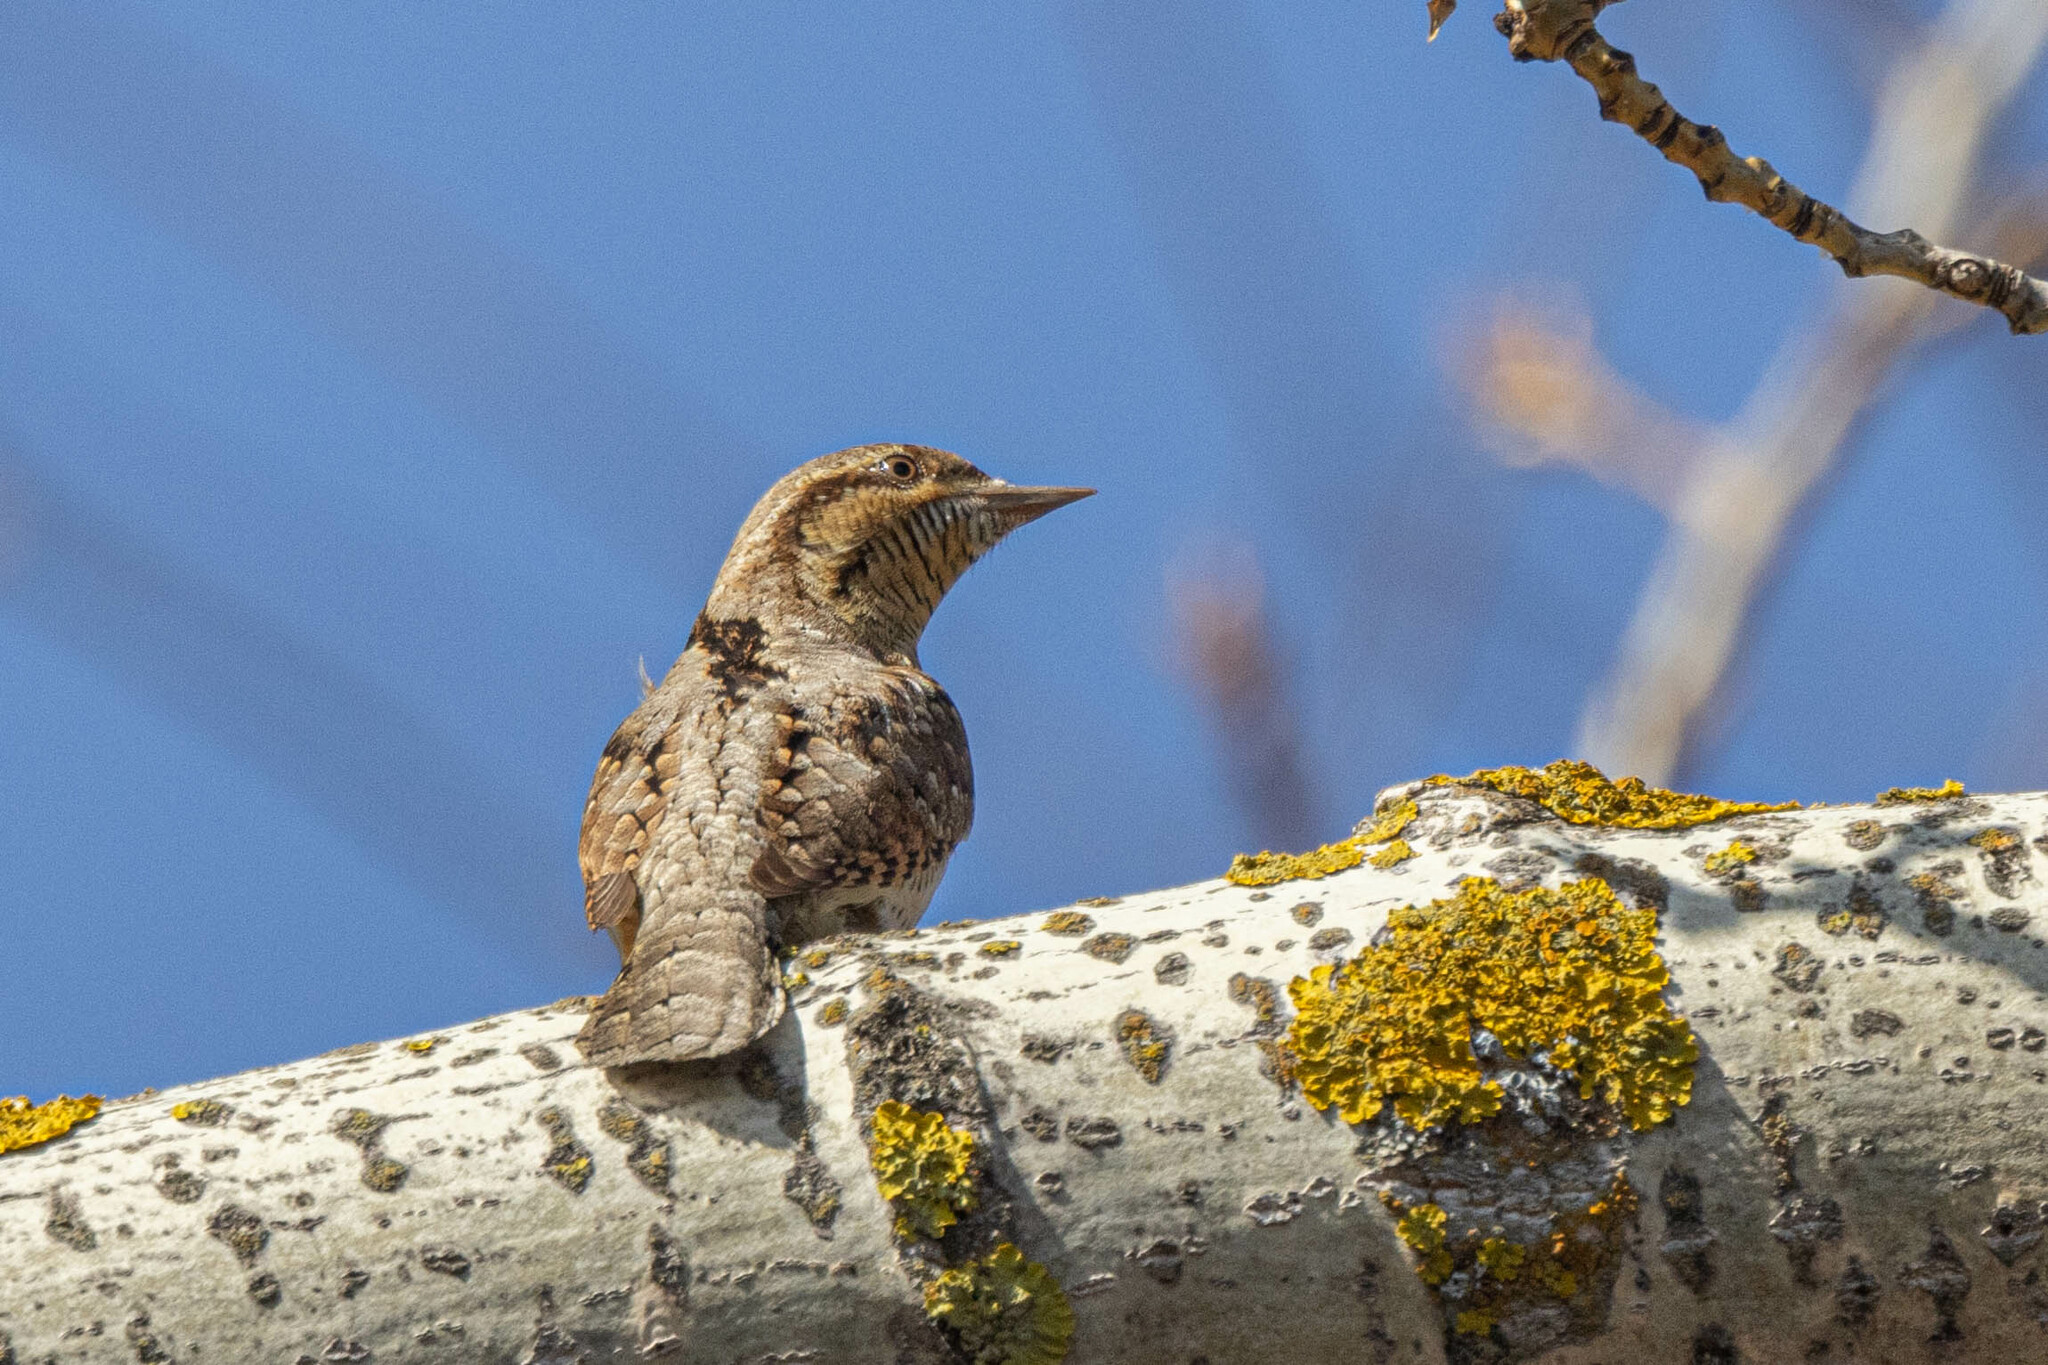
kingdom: Animalia
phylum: Chordata
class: Aves
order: Piciformes
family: Picidae
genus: Jynx
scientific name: Jynx torquilla
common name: Eurasian wryneck
